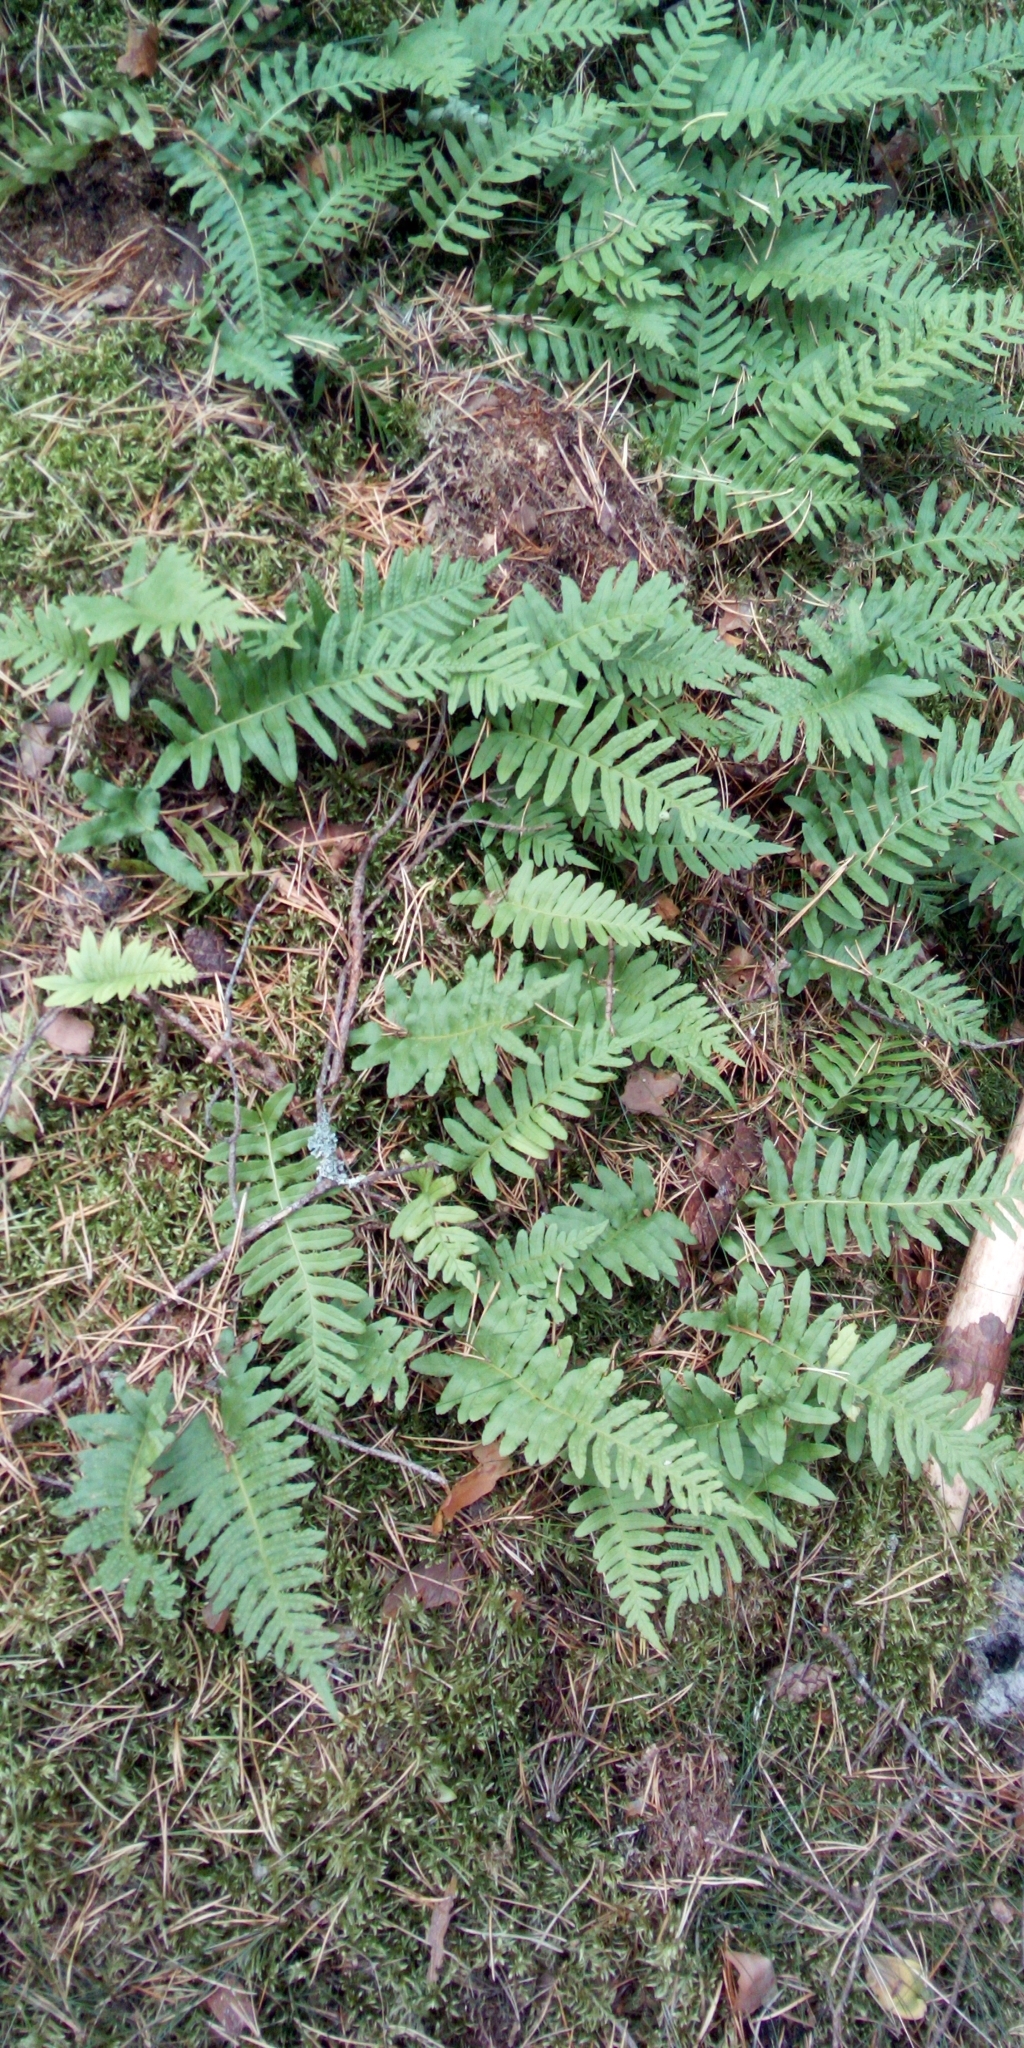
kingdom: Plantae
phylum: Tracheophyta
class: Polypodiopsida
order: Polypodiales
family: Polypodiaceae
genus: Polypodium
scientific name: Polypodium vulgare
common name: Common polypody
